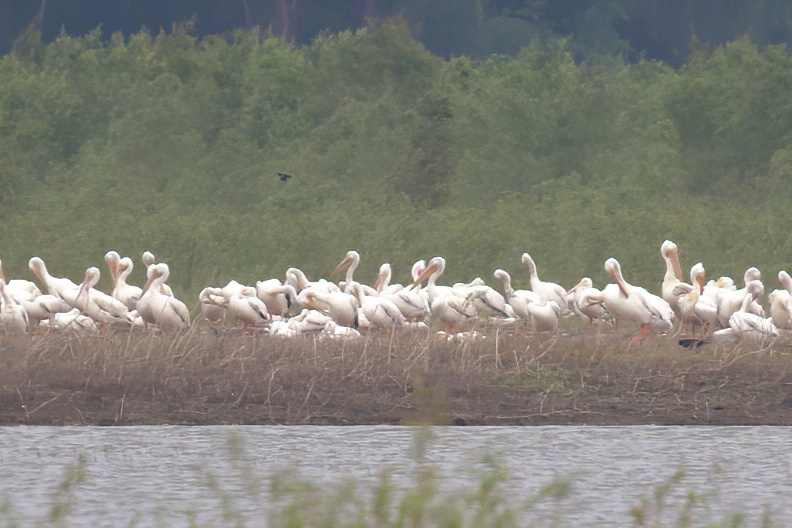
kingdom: Animalia
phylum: Chordata
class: Aves
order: Pelecaniformes
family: Pelecanidae
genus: Pelecanus
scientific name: Pelecanus erythrorhynchos
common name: American white pelican
